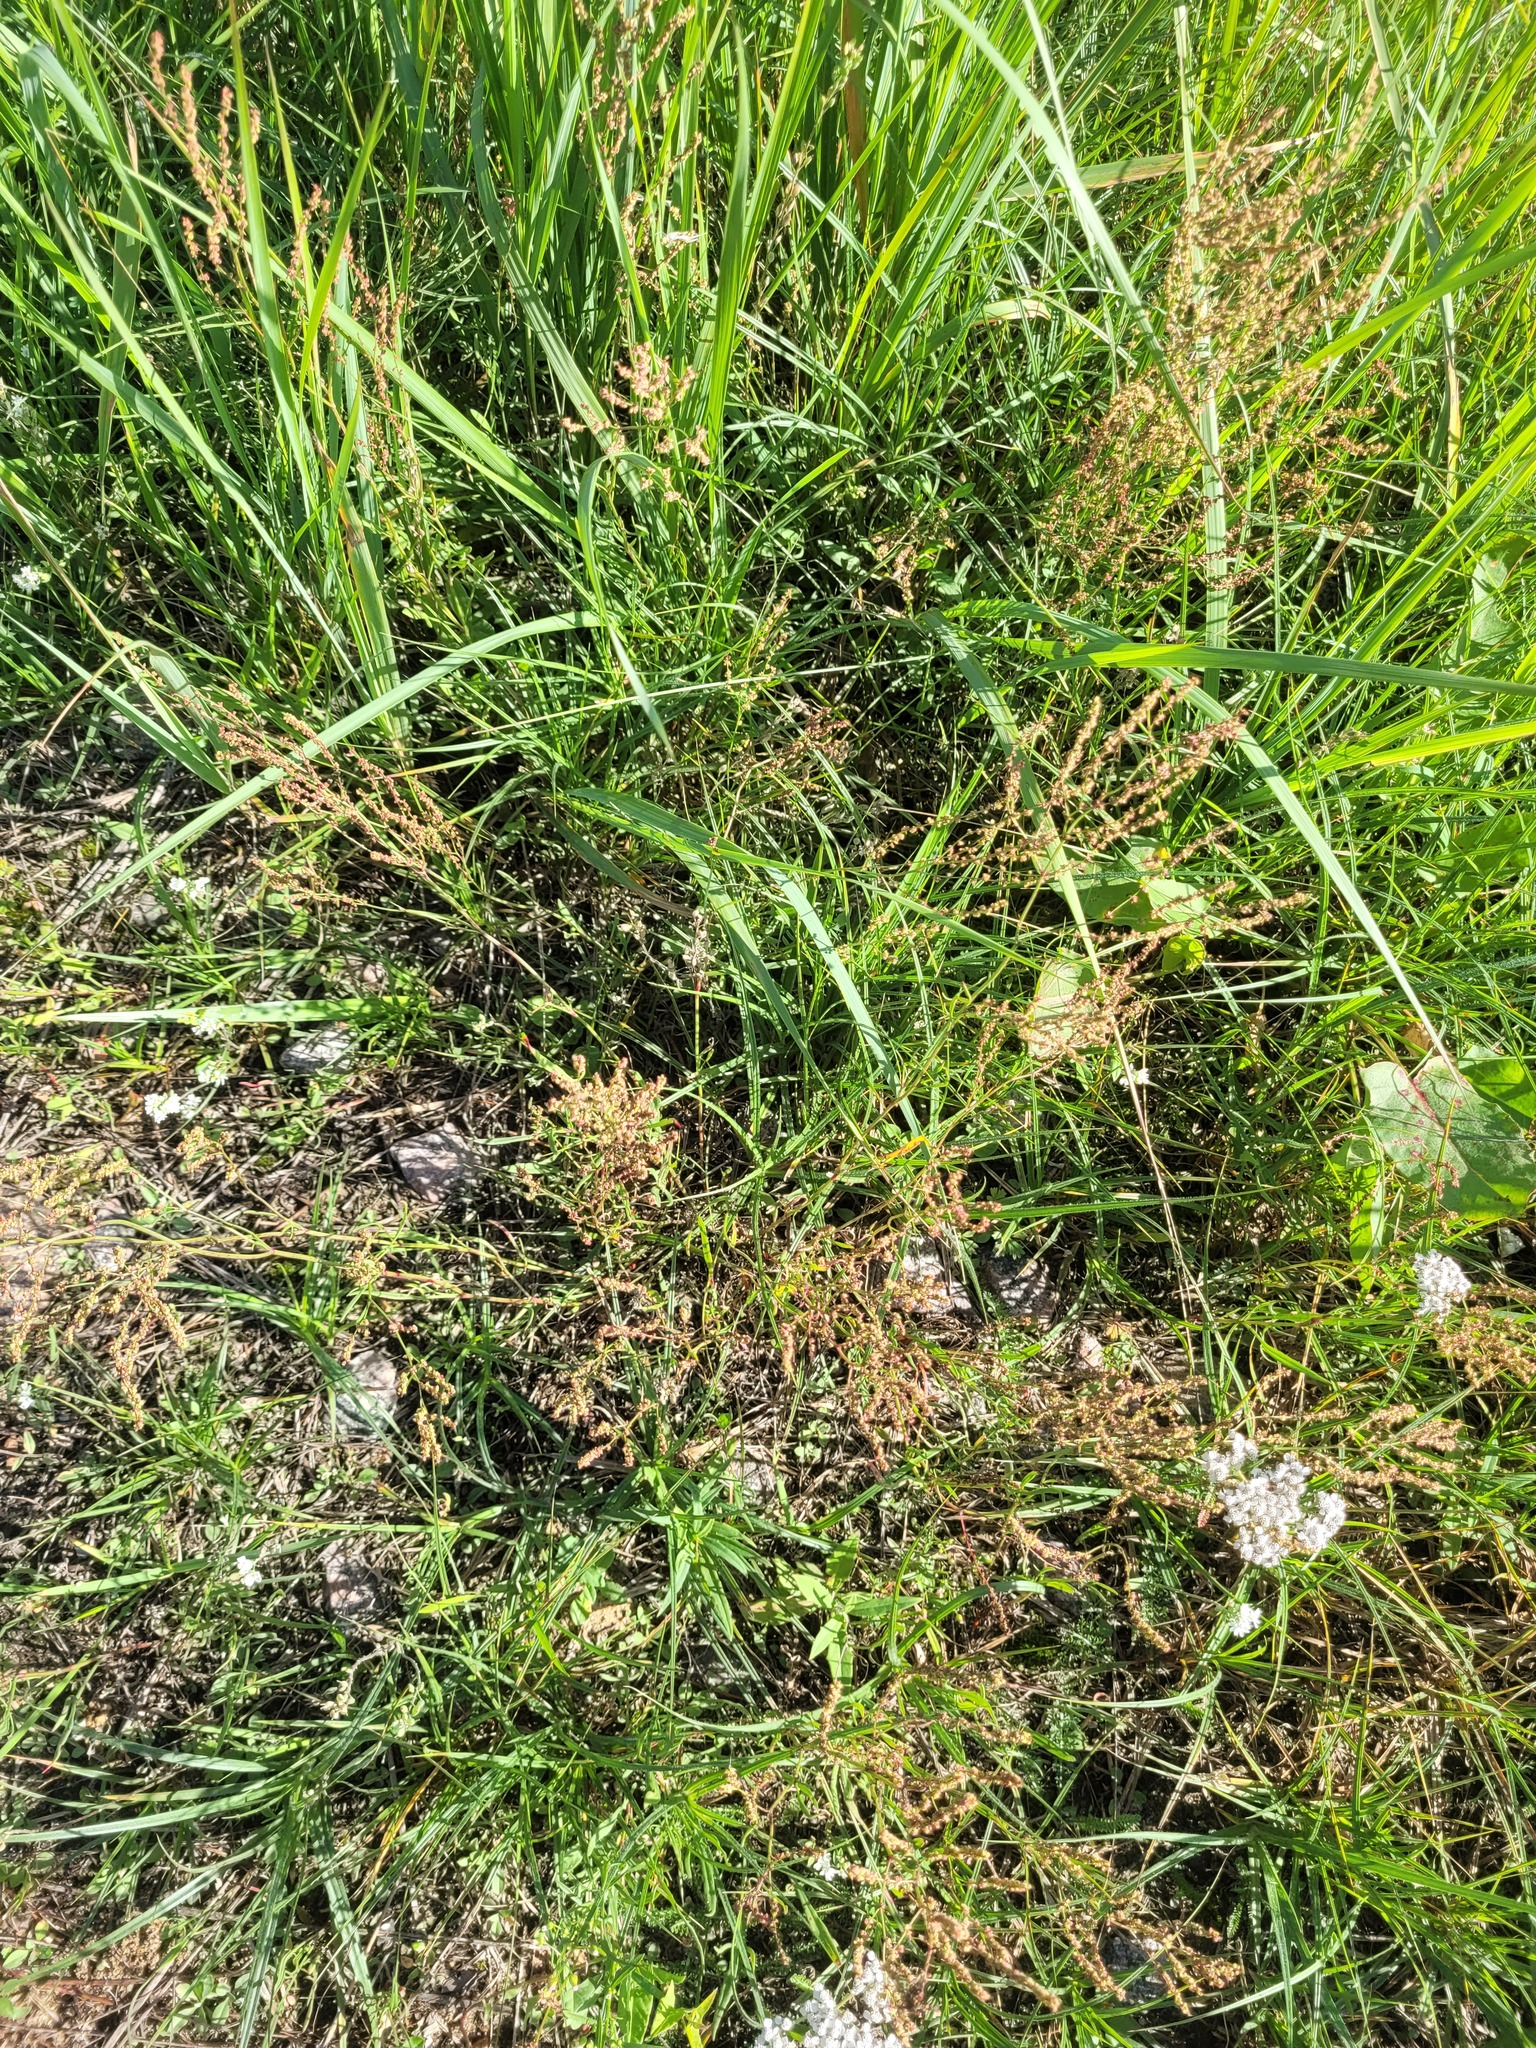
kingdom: Plantae
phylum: Tracheophyta
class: Magnoliopsida
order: Caryophyllales
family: Polygonaceae
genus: Rumex
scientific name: Rumex acetosella
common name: Common sheep sorrel
